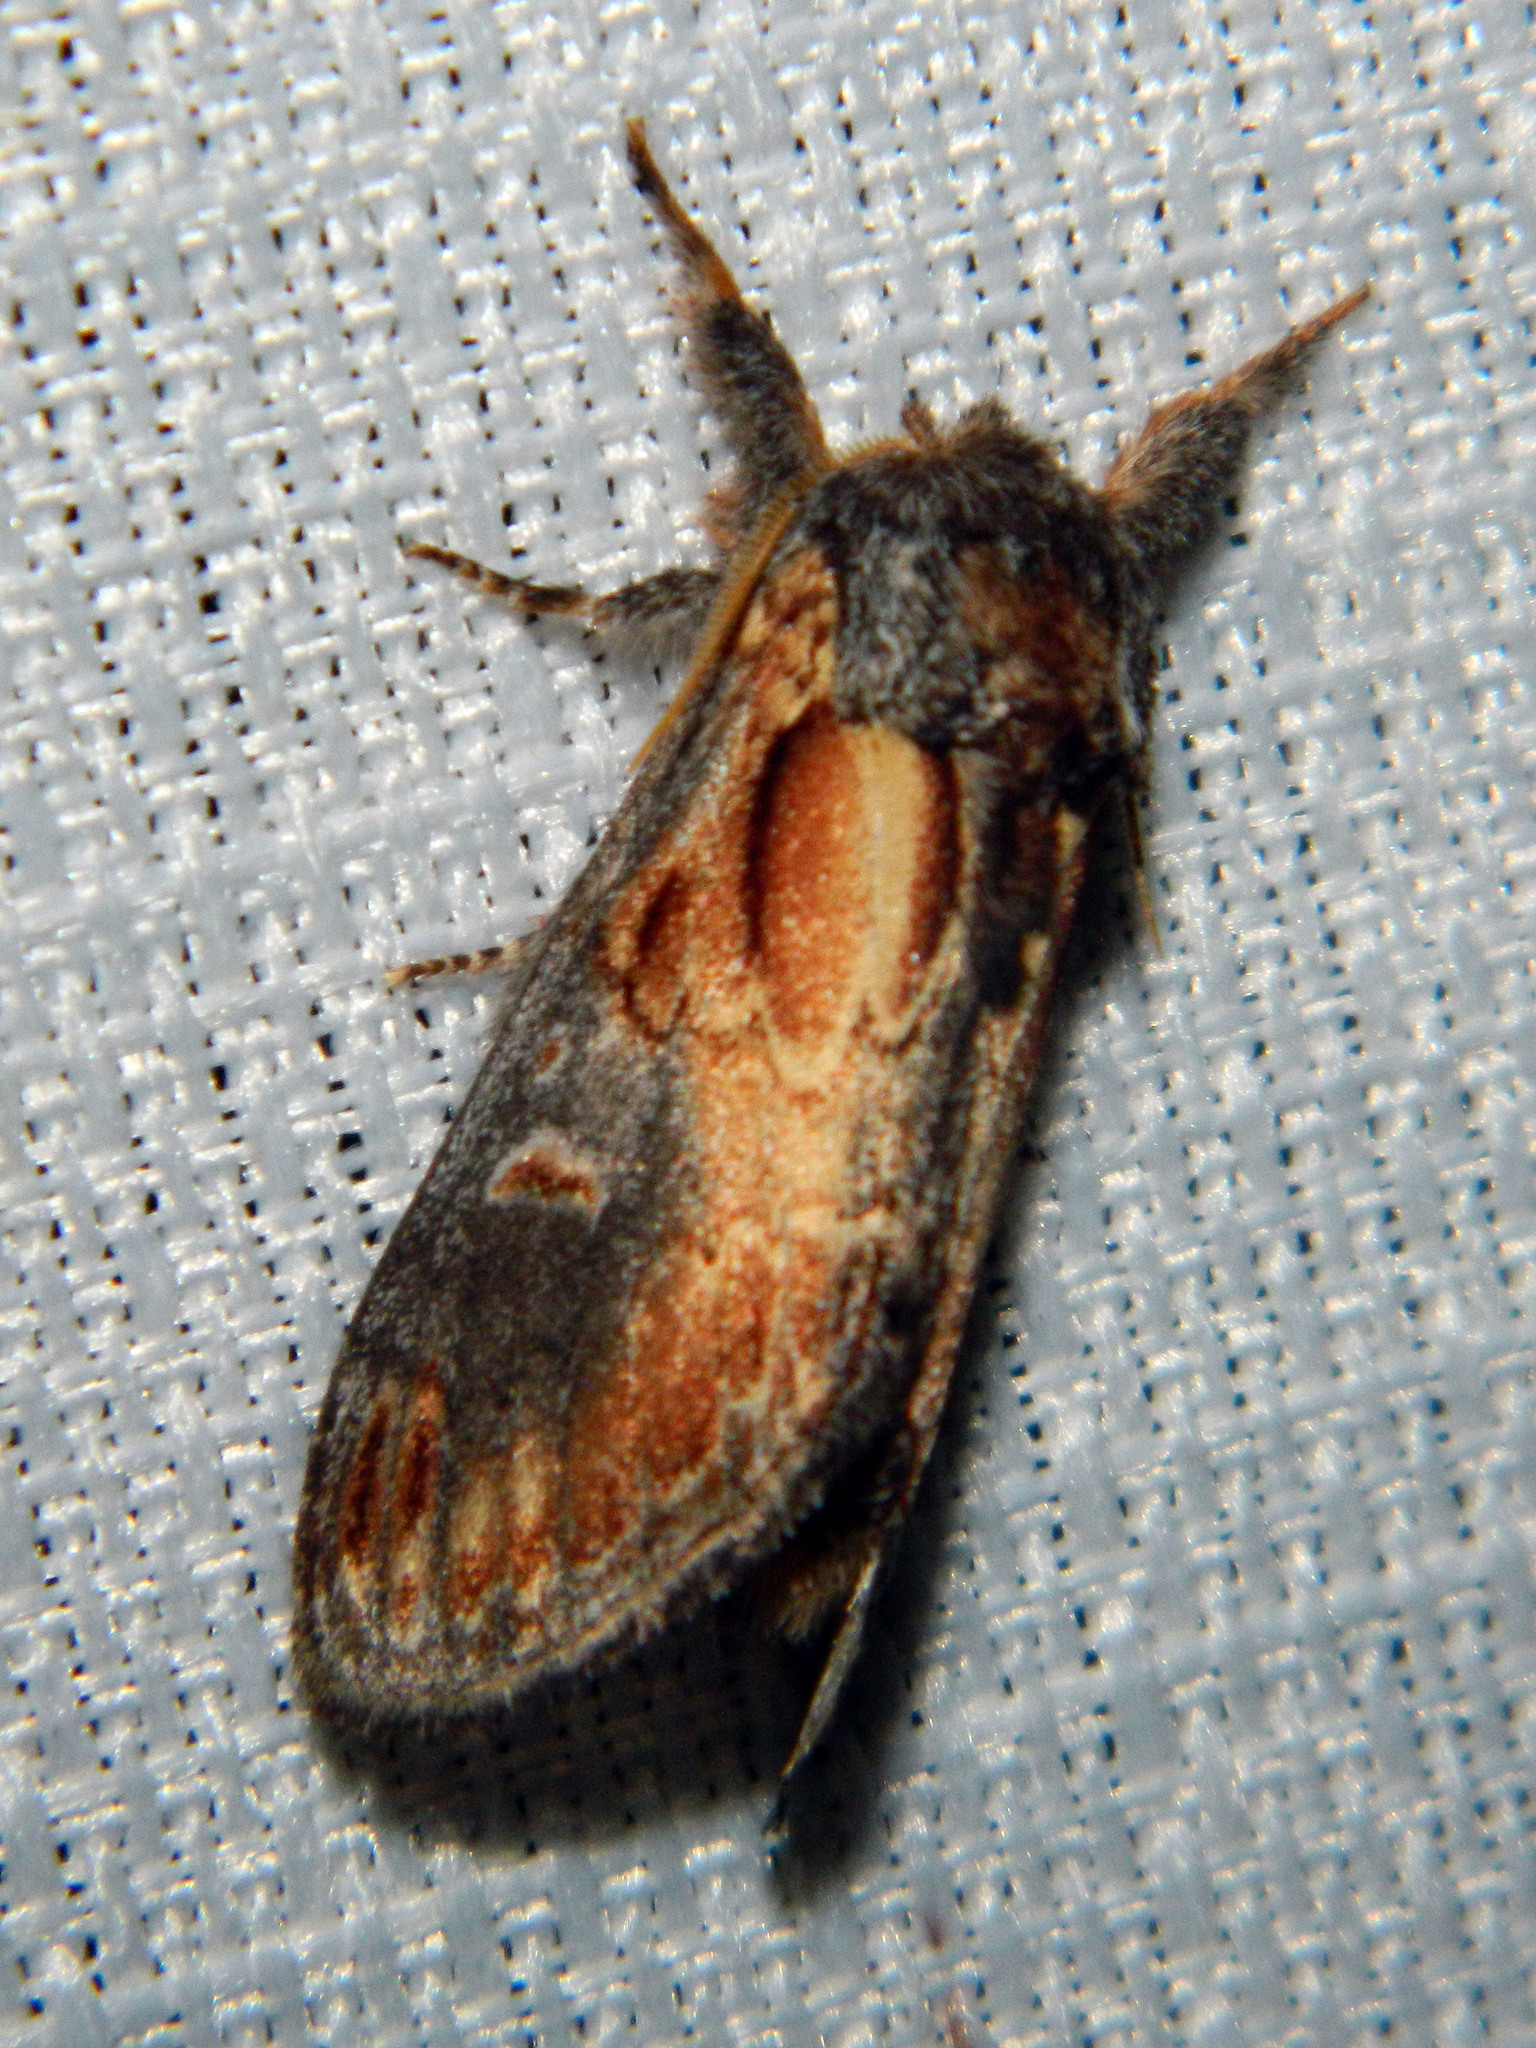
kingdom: Animalia
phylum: Arthropoda
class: Insecta
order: Lepidoptera
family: Notodontidae
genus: Notodonta
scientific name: Notodonta scitipennis
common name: Finned-willow prominent moth
